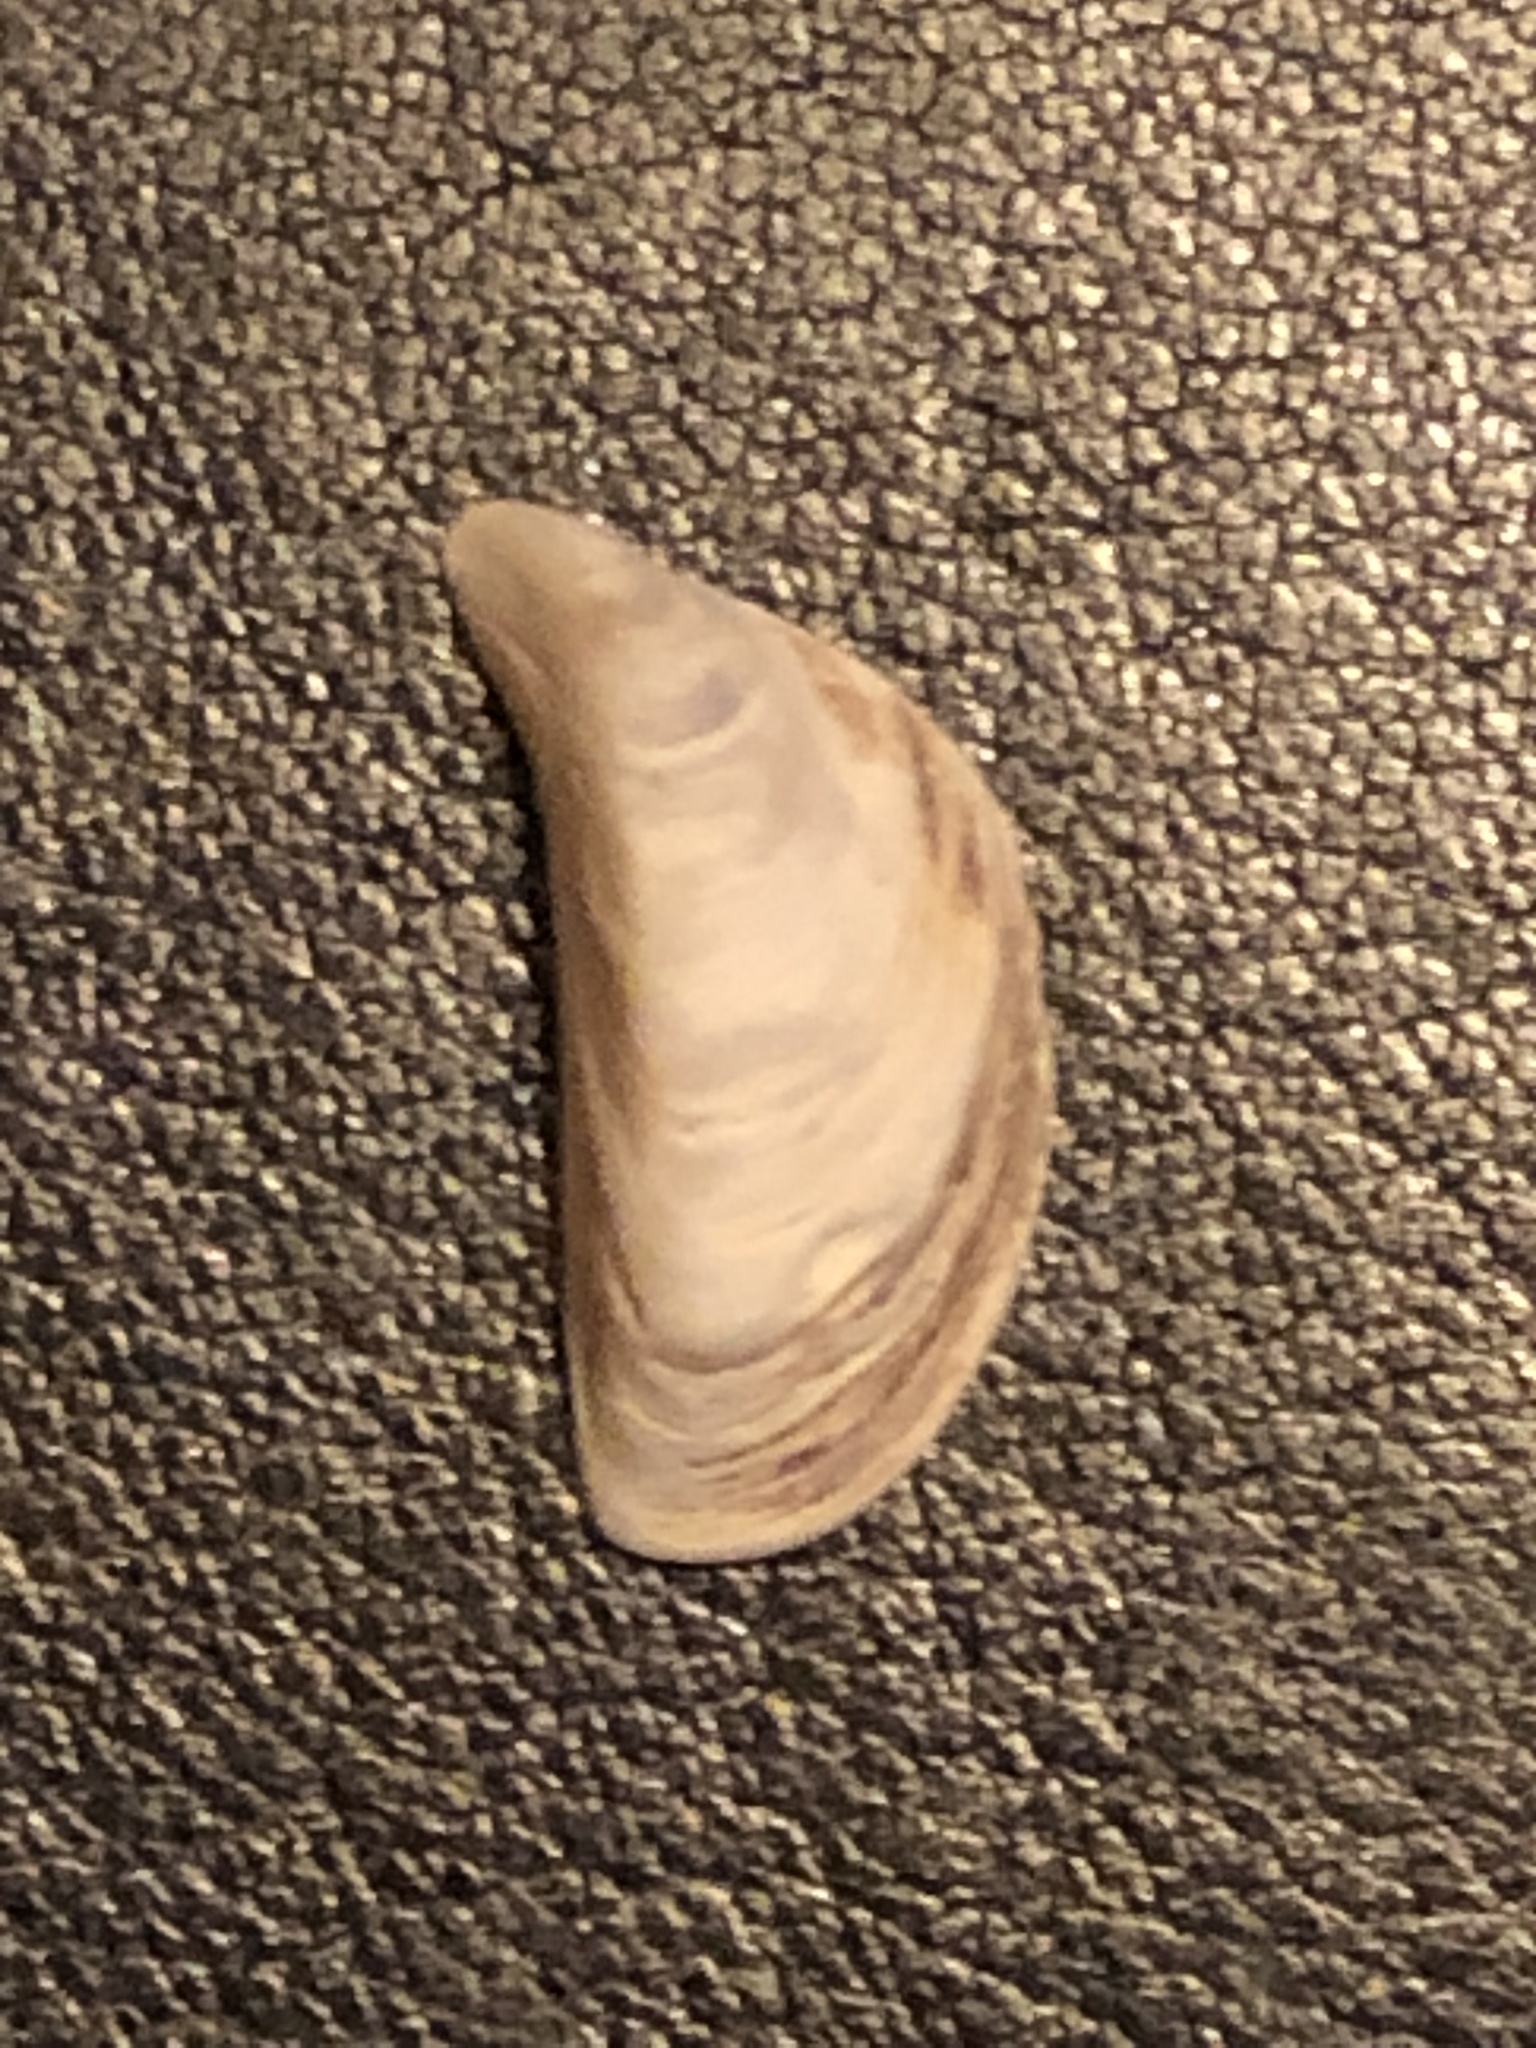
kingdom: Animalia
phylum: Mollusca
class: Bivalvia
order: Myida
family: Dreissenidae
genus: Dreissena
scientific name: Dreissena polymorpha
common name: Zebra mussel
